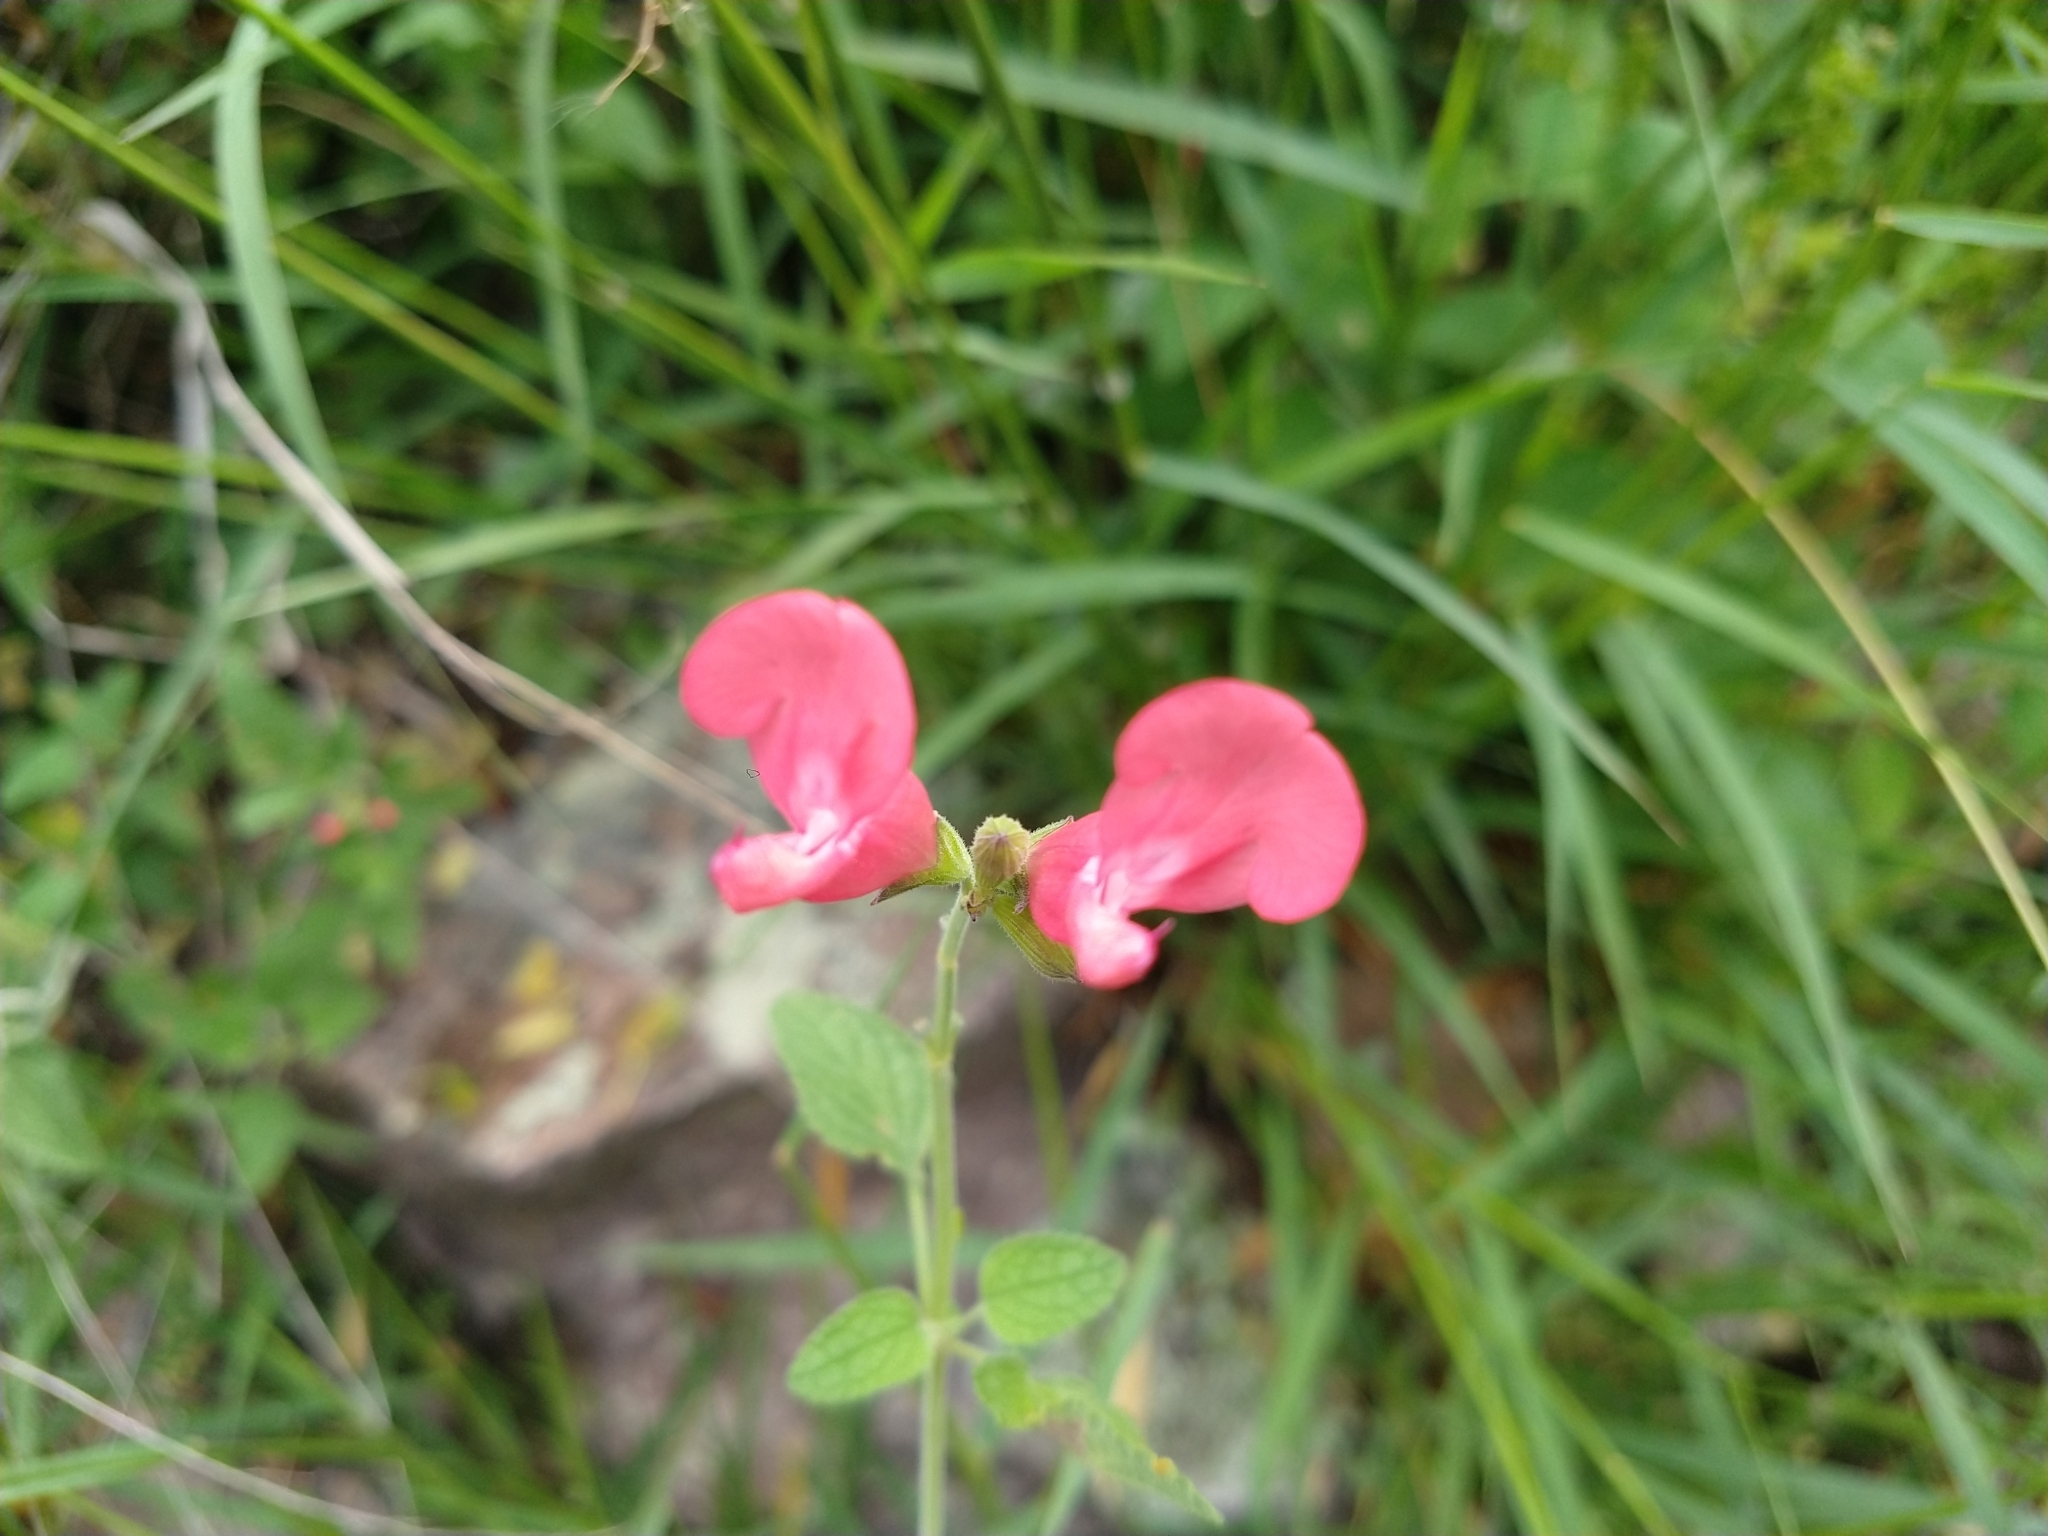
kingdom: Plantae
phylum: Tracheophyta
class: Magnoliopsida
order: Lamiales
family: Lamiaceae
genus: Salvia
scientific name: Salvia microphylla
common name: Baby sage
